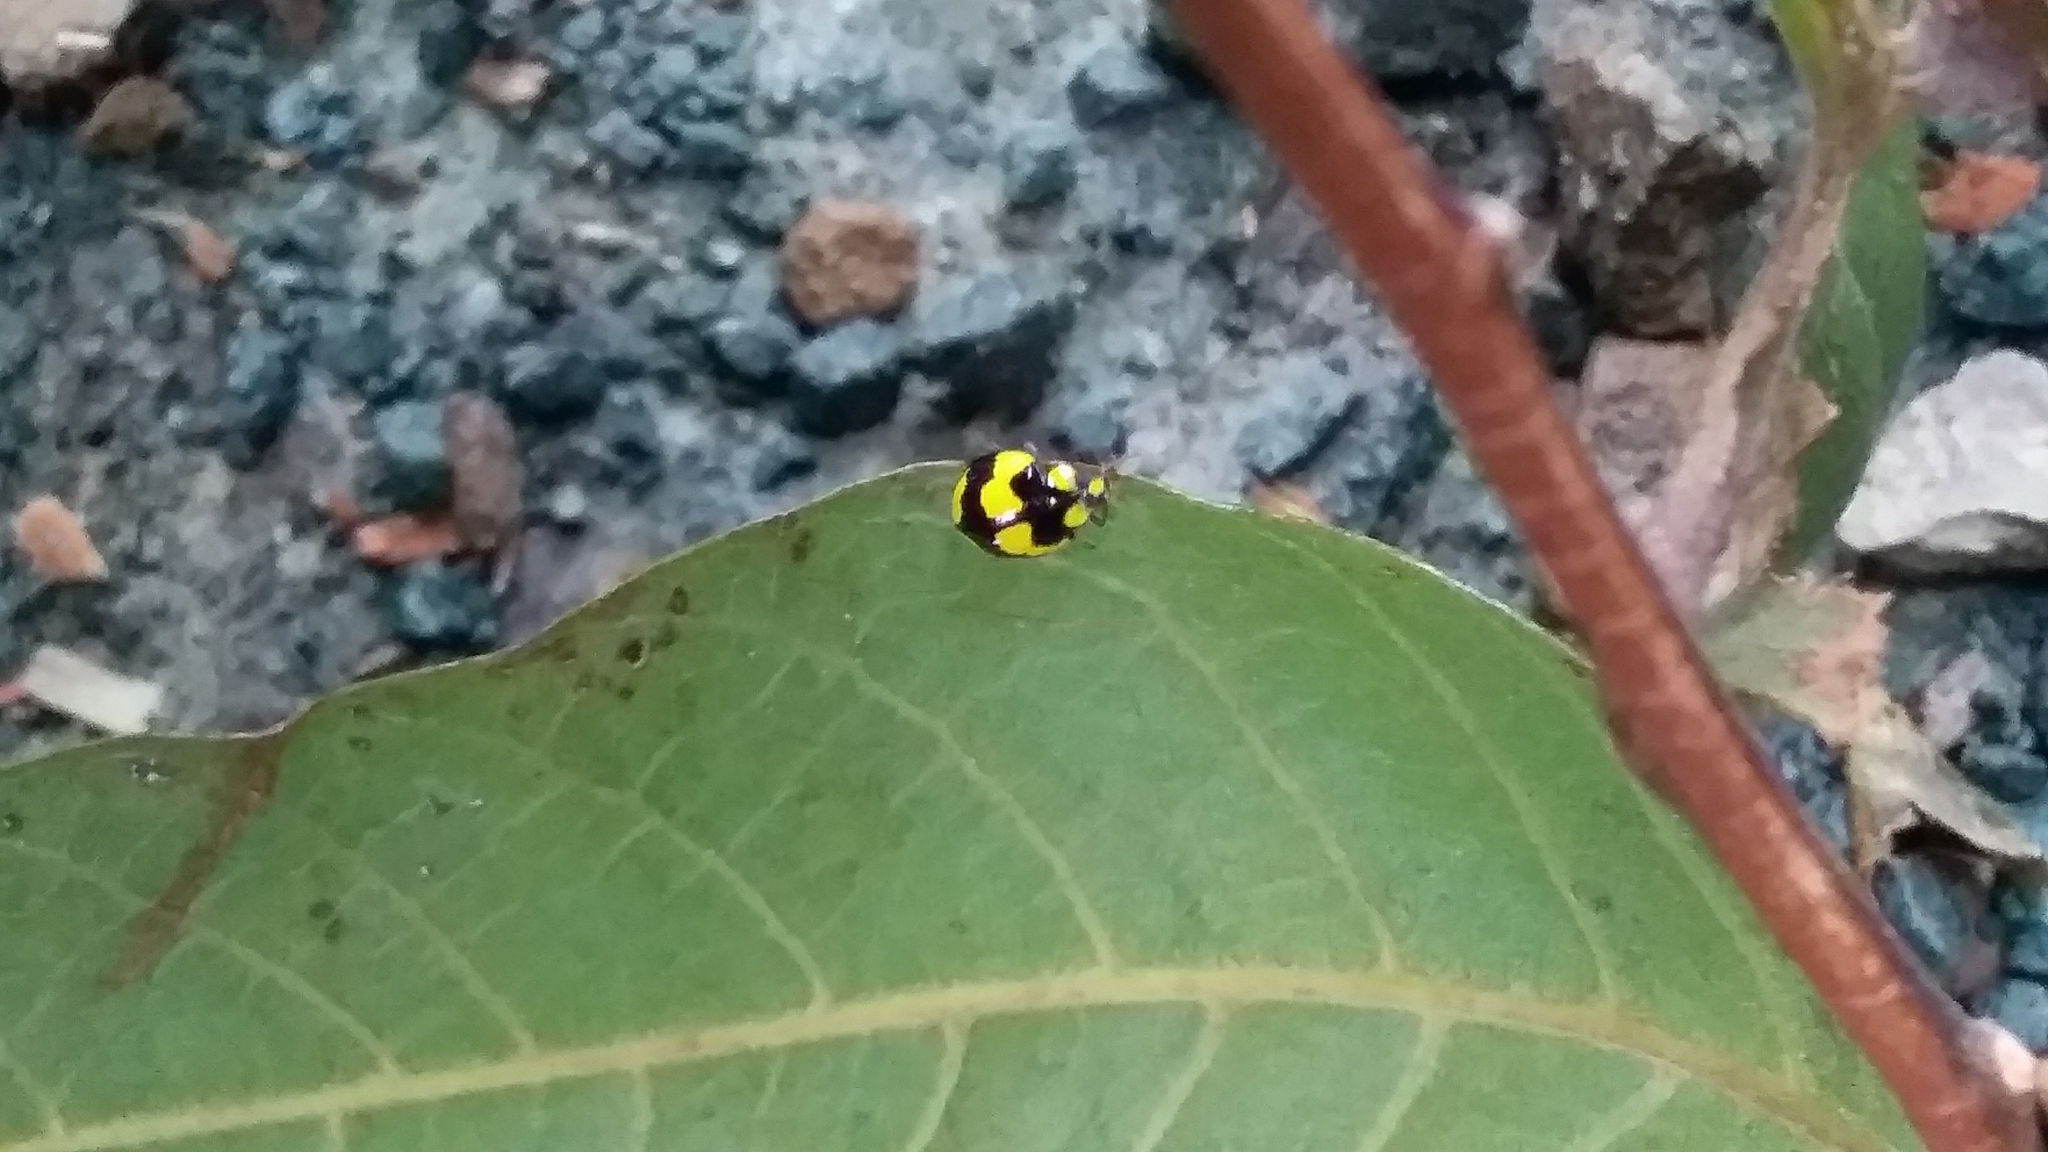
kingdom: Animalia
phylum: Arthropoda
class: Insecta
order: Coleoptera
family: Coccinellidae
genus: Illeis
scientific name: Illeis galbula
